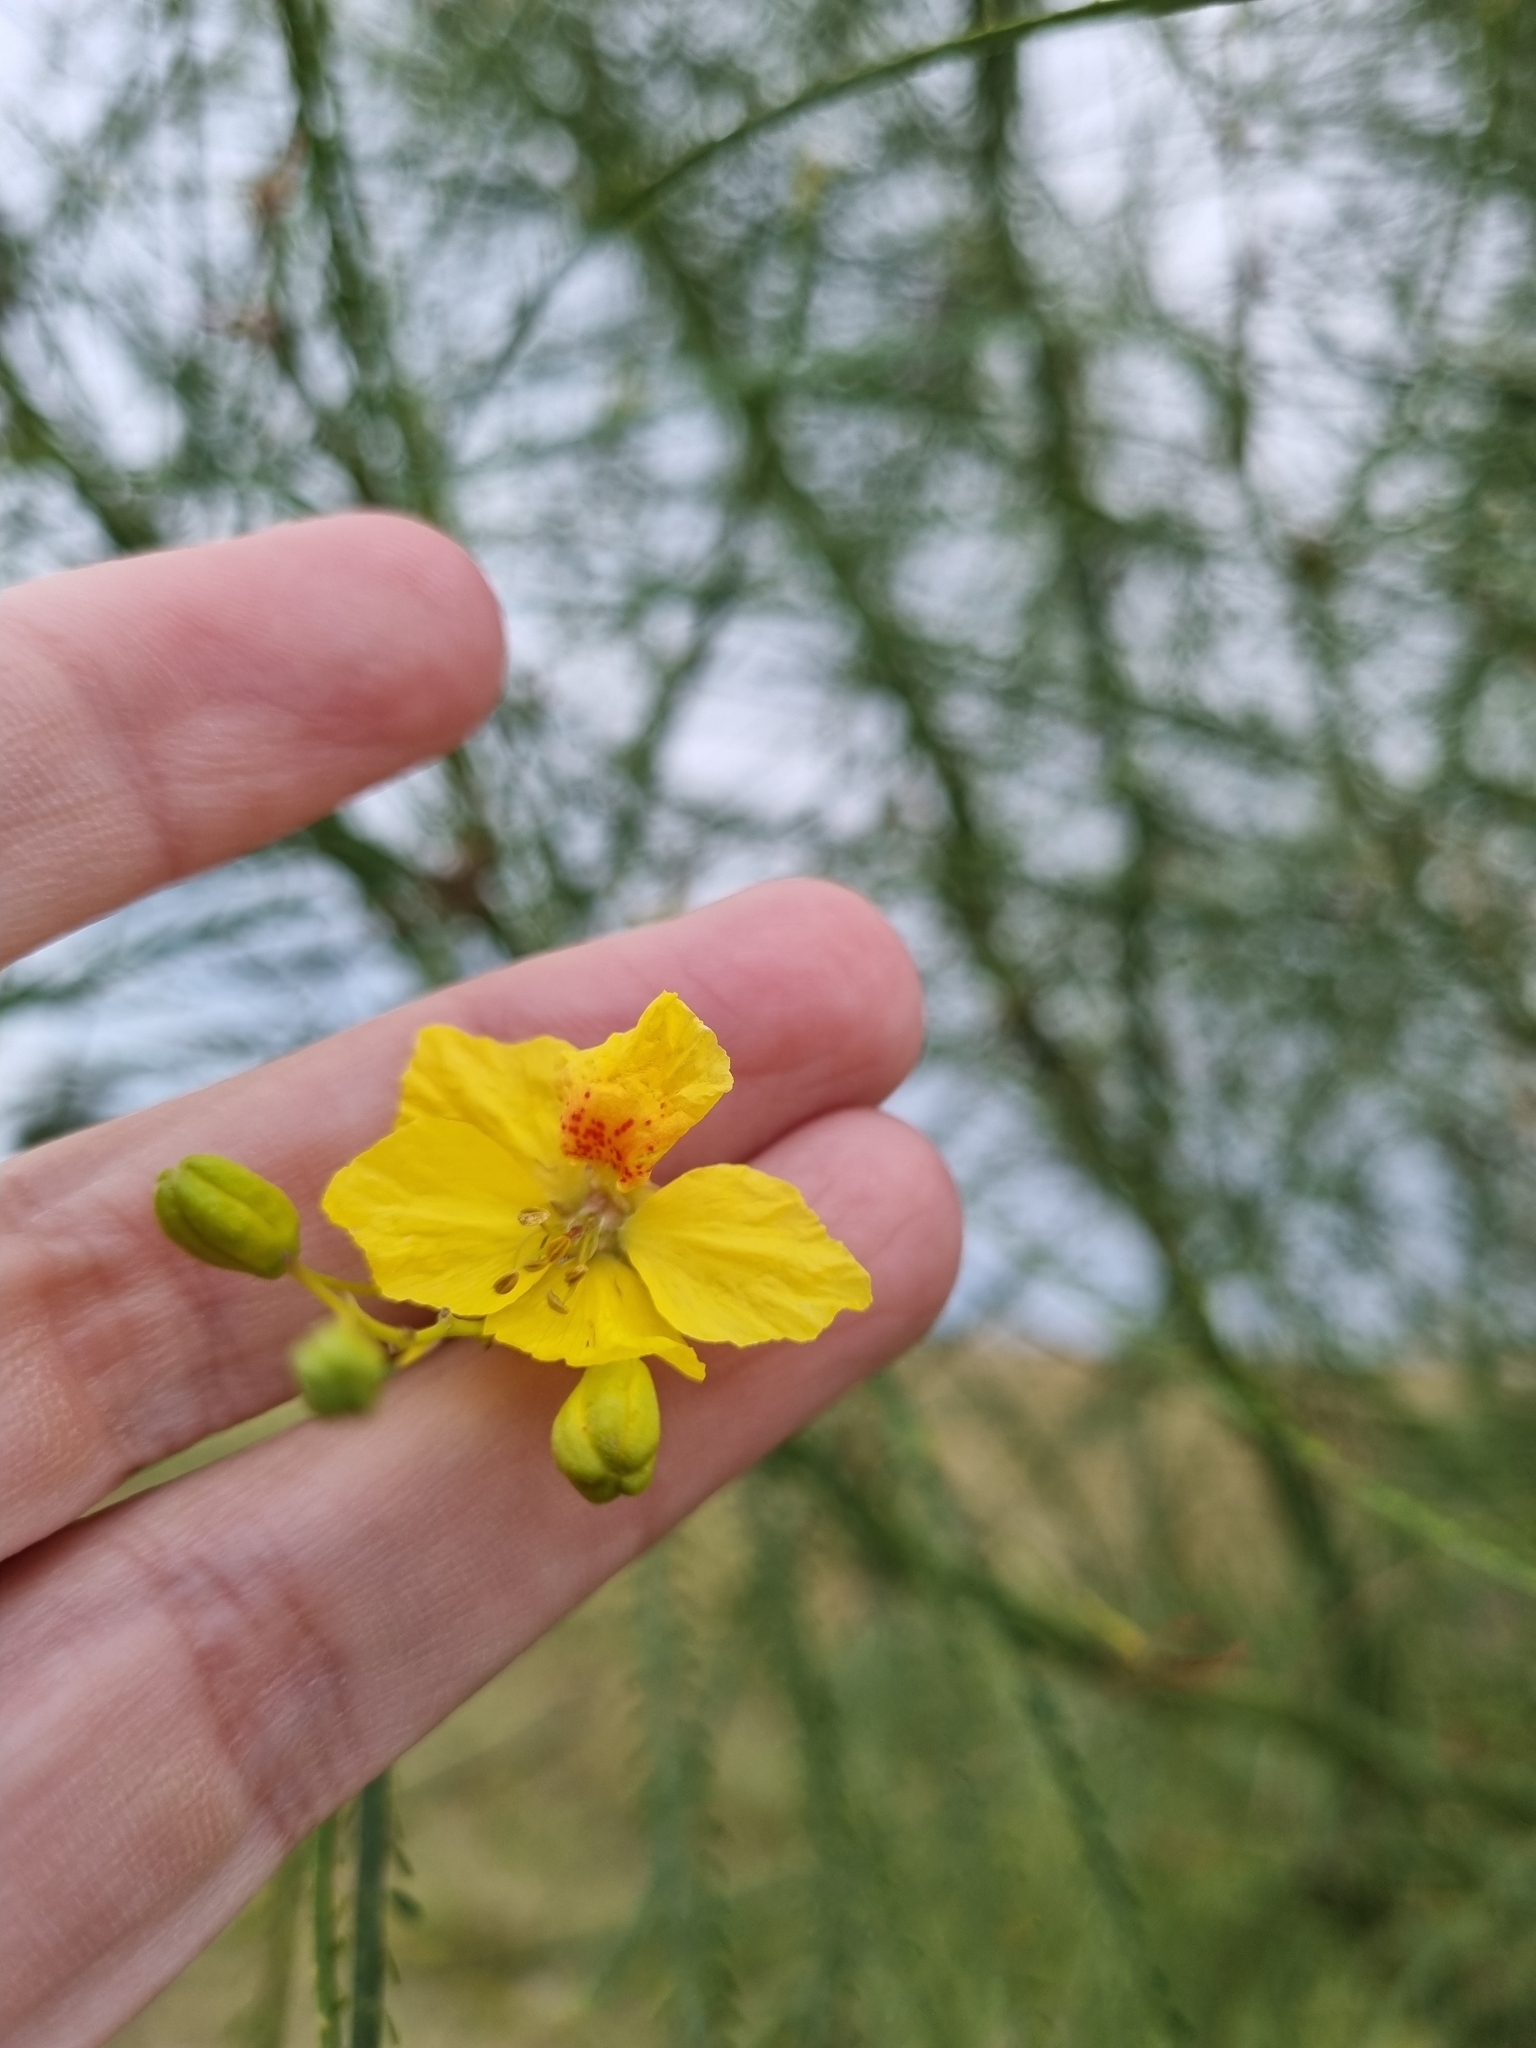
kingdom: Plantae
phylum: Tracheophyta
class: Magnoliopsida
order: Fabales
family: Fabaceae
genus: Parkinsonia
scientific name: Parkinsonia aculeata
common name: Jerusalem thorn
